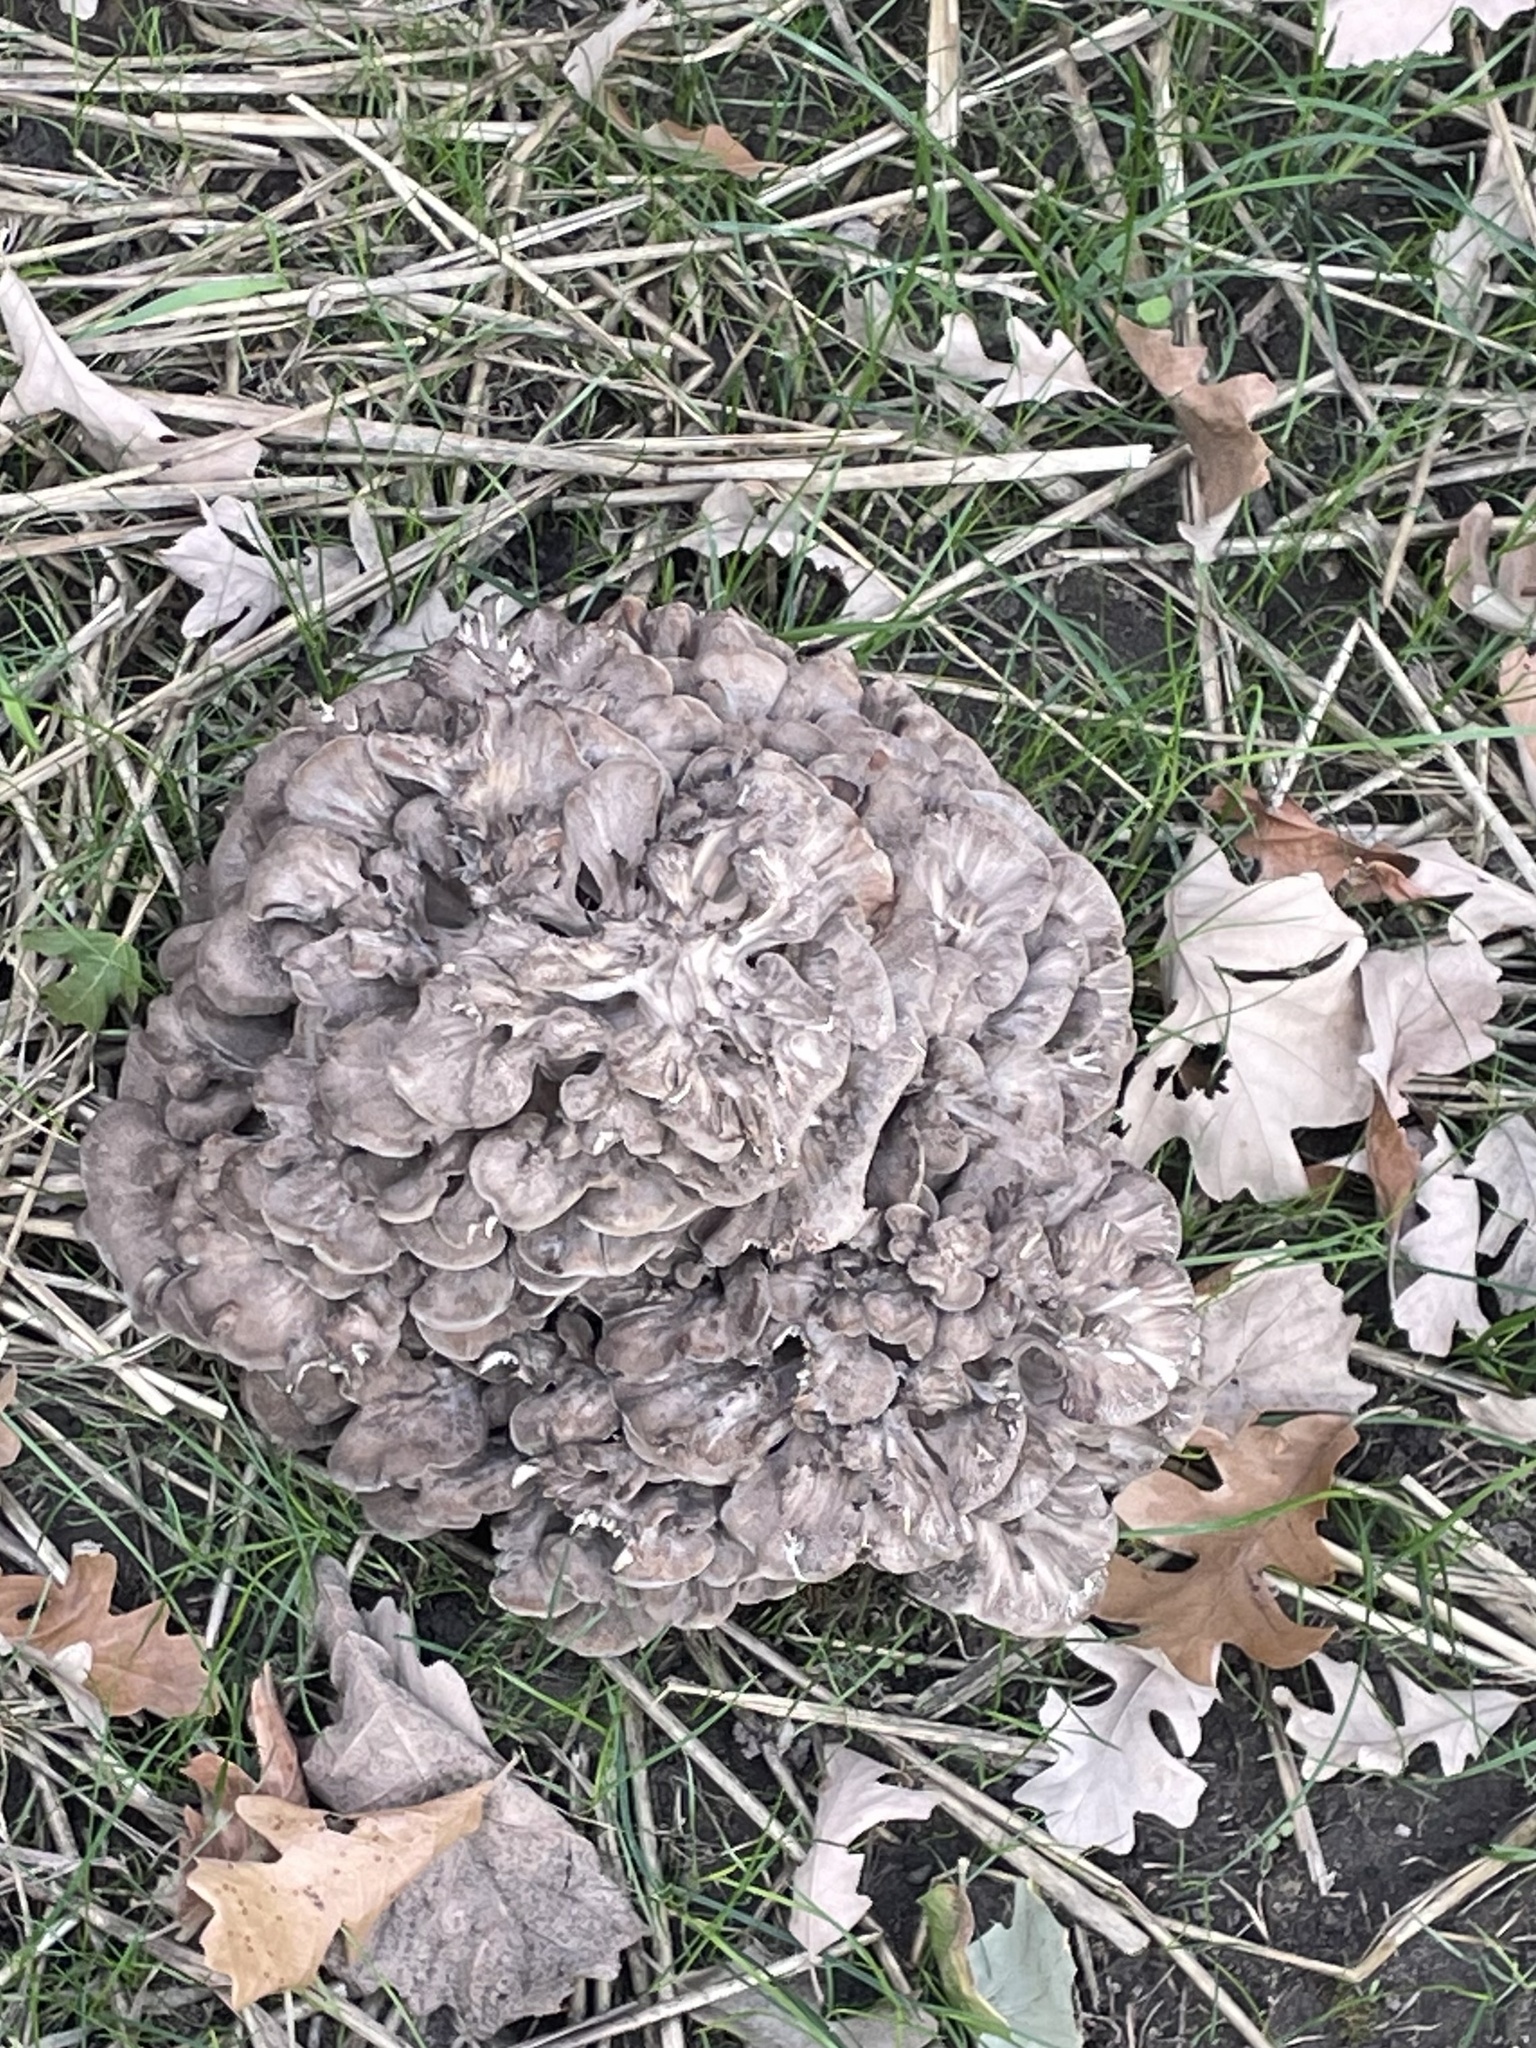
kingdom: Fungi
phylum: Basidiomycota
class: Agaricomycetes
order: Polyporales
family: Grifolaceae
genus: Grifola
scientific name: Grifola frondosa
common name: Hen of the woods
